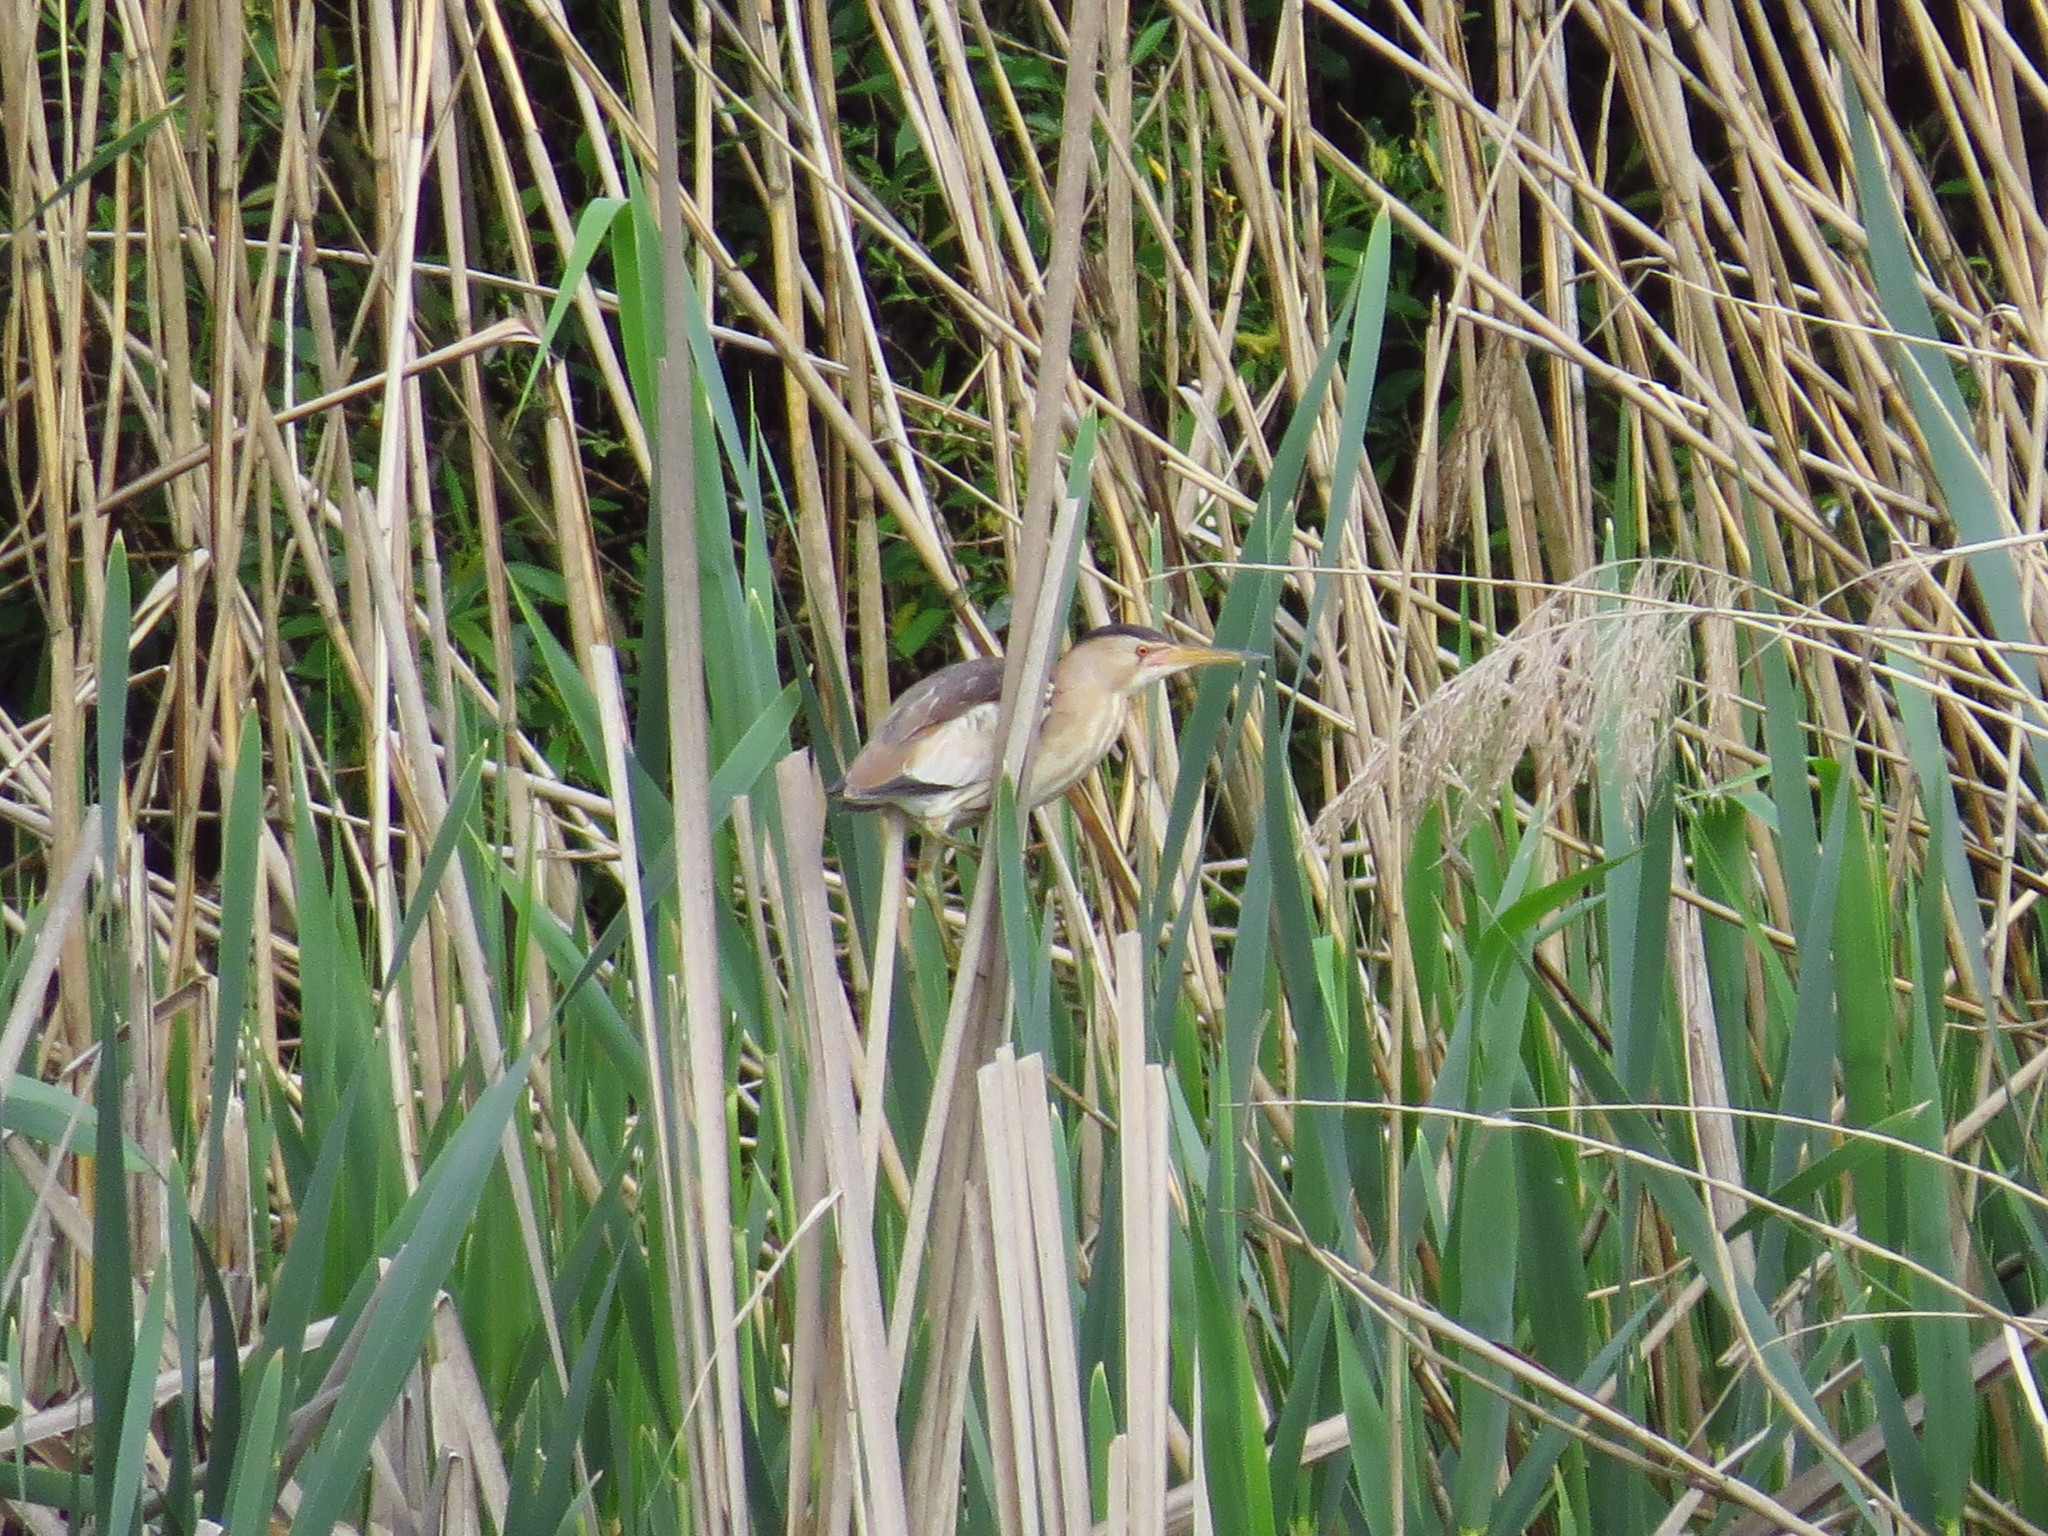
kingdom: Animalia
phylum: Chordata
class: Aves
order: Pelecaniformes
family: Ardeidae
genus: Ixobrychus
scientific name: Ixobrychus minutus
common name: Little bittern
